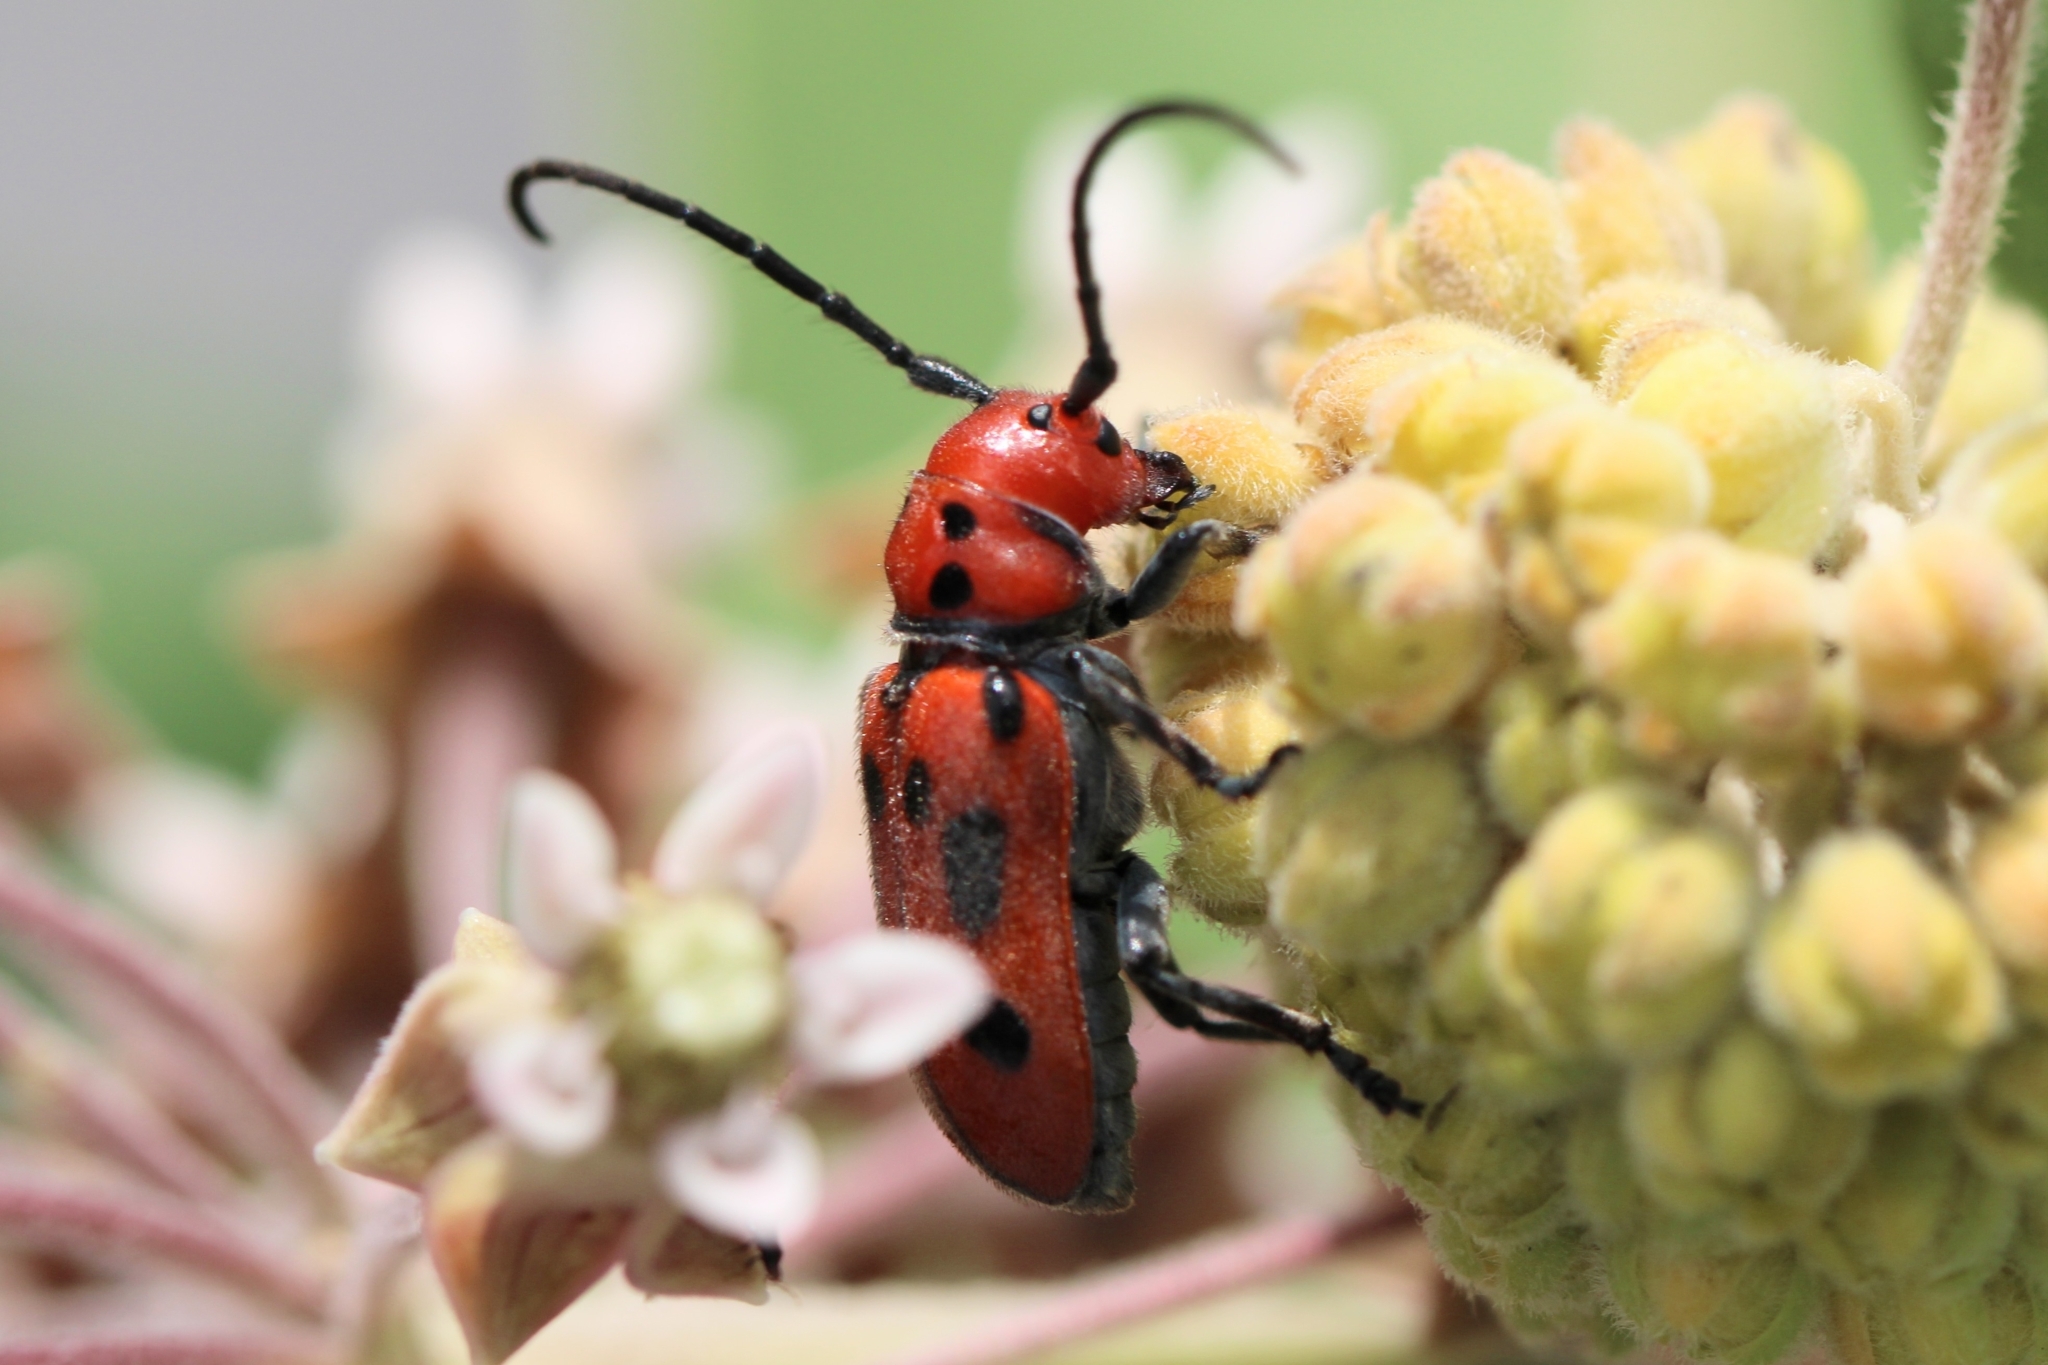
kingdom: Animalia
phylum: Arthropoda
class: Insecta
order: Coleoptera
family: Cerambycidae
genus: Tetraopes
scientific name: Tetraopes tetrophthalmus
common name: Red milkweed beetle
